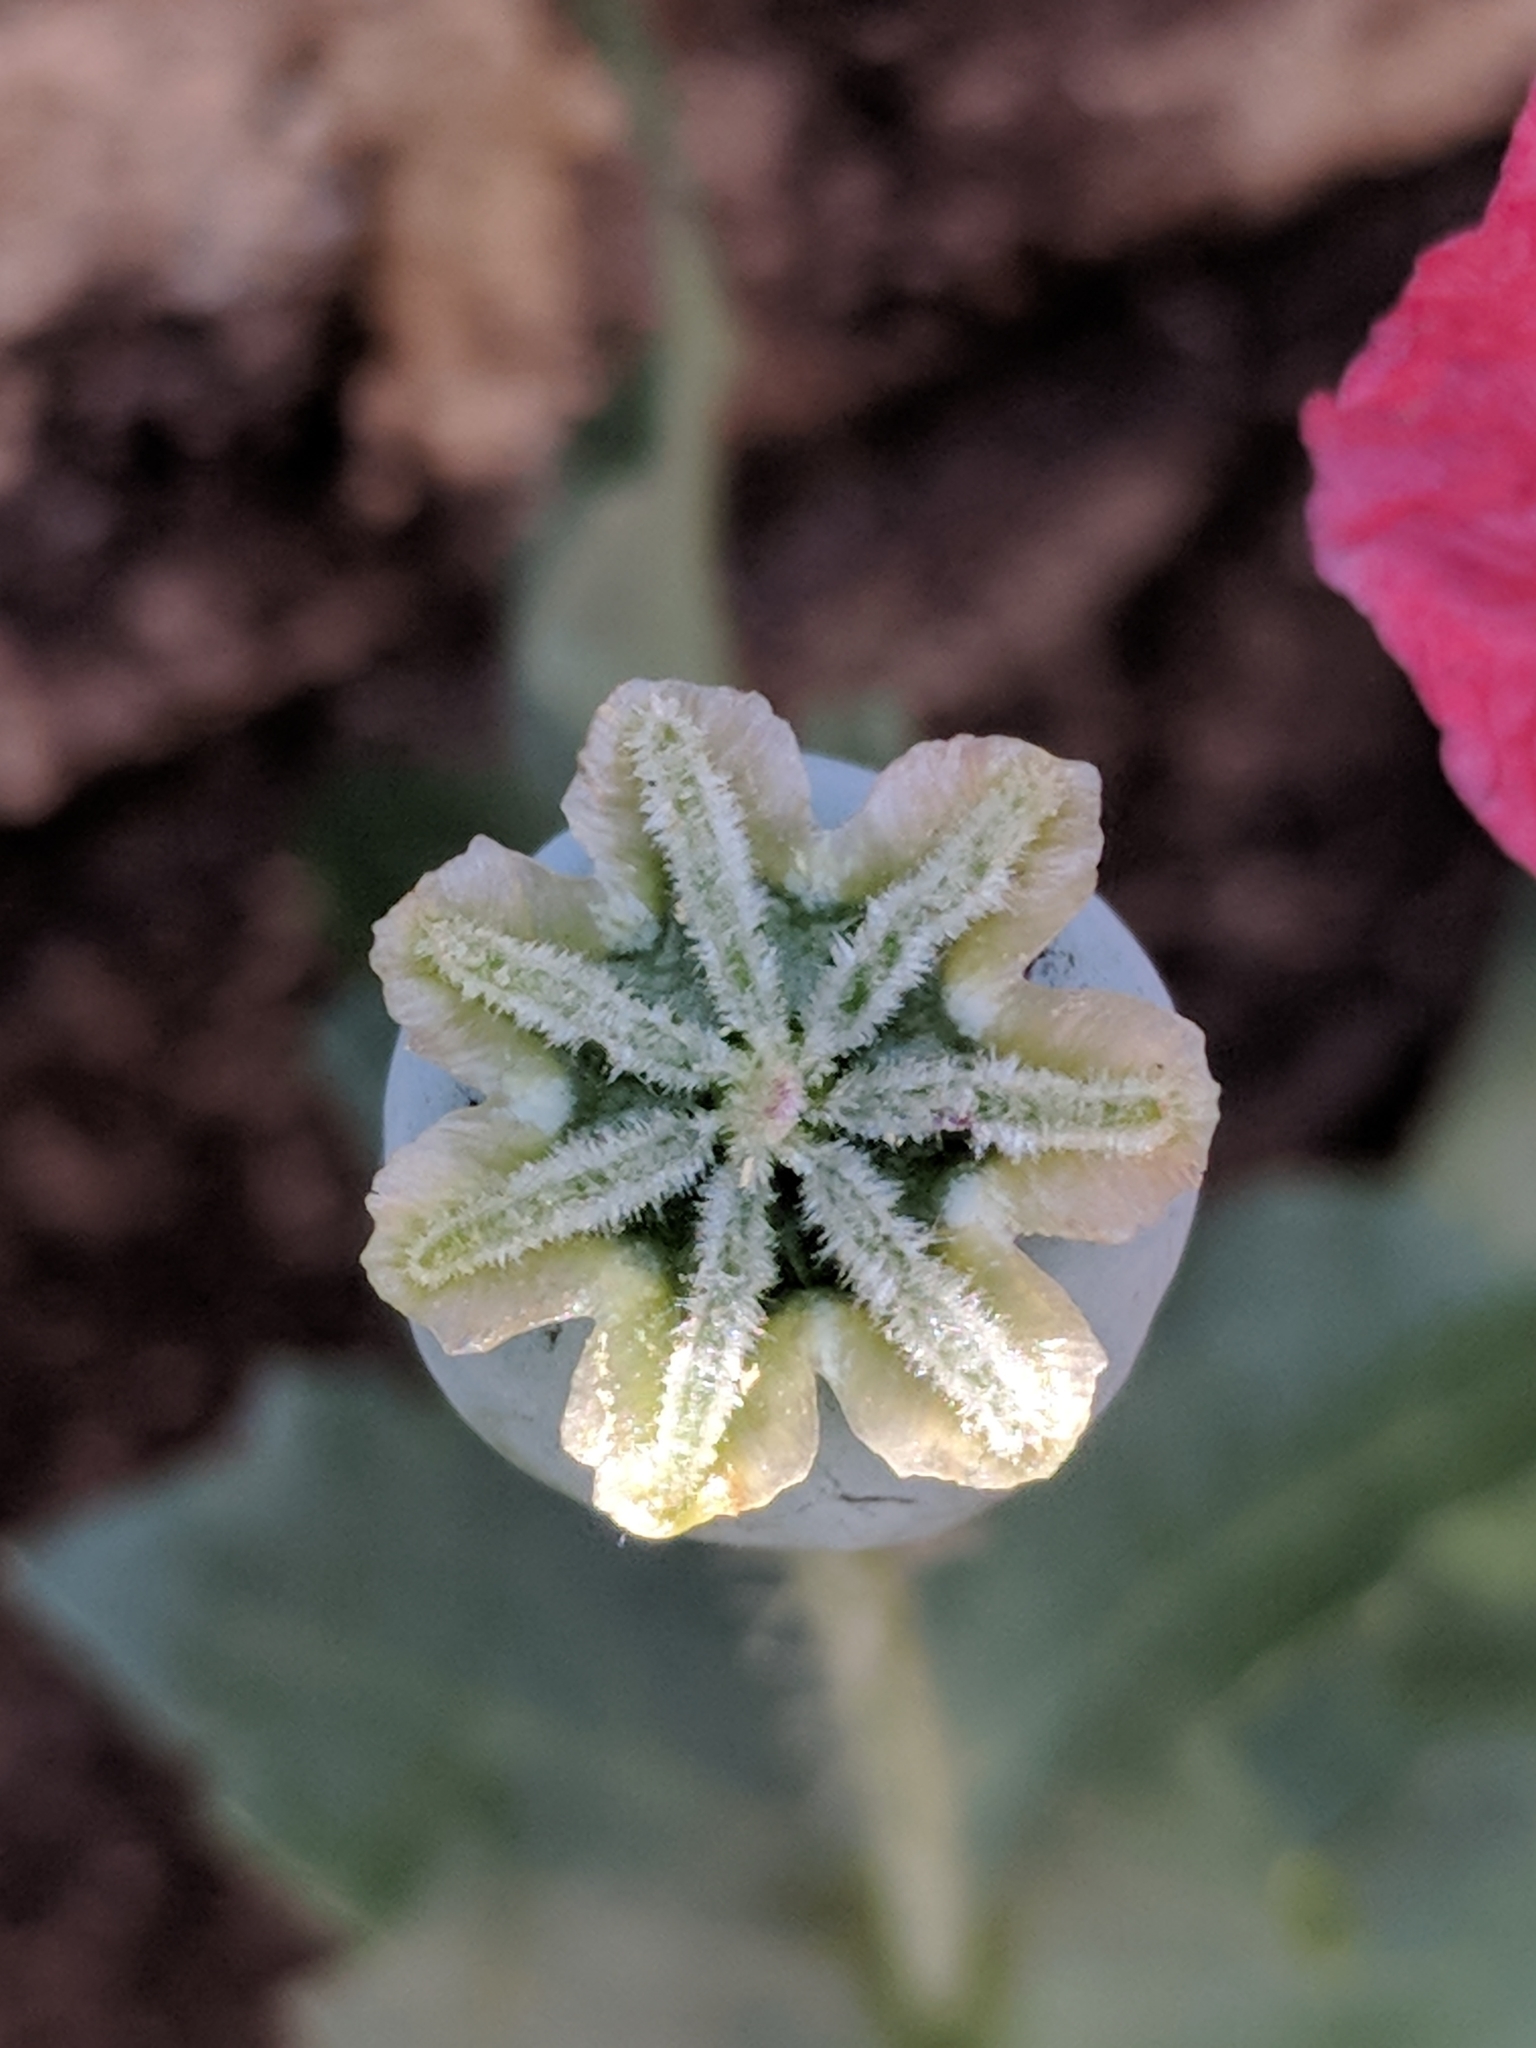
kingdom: Plantae
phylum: Tracheophyta
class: Magnoliopsida
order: Ranunculales
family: Papaveraceae
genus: Papaver
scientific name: Papaver somniferum
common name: Opium poppy
